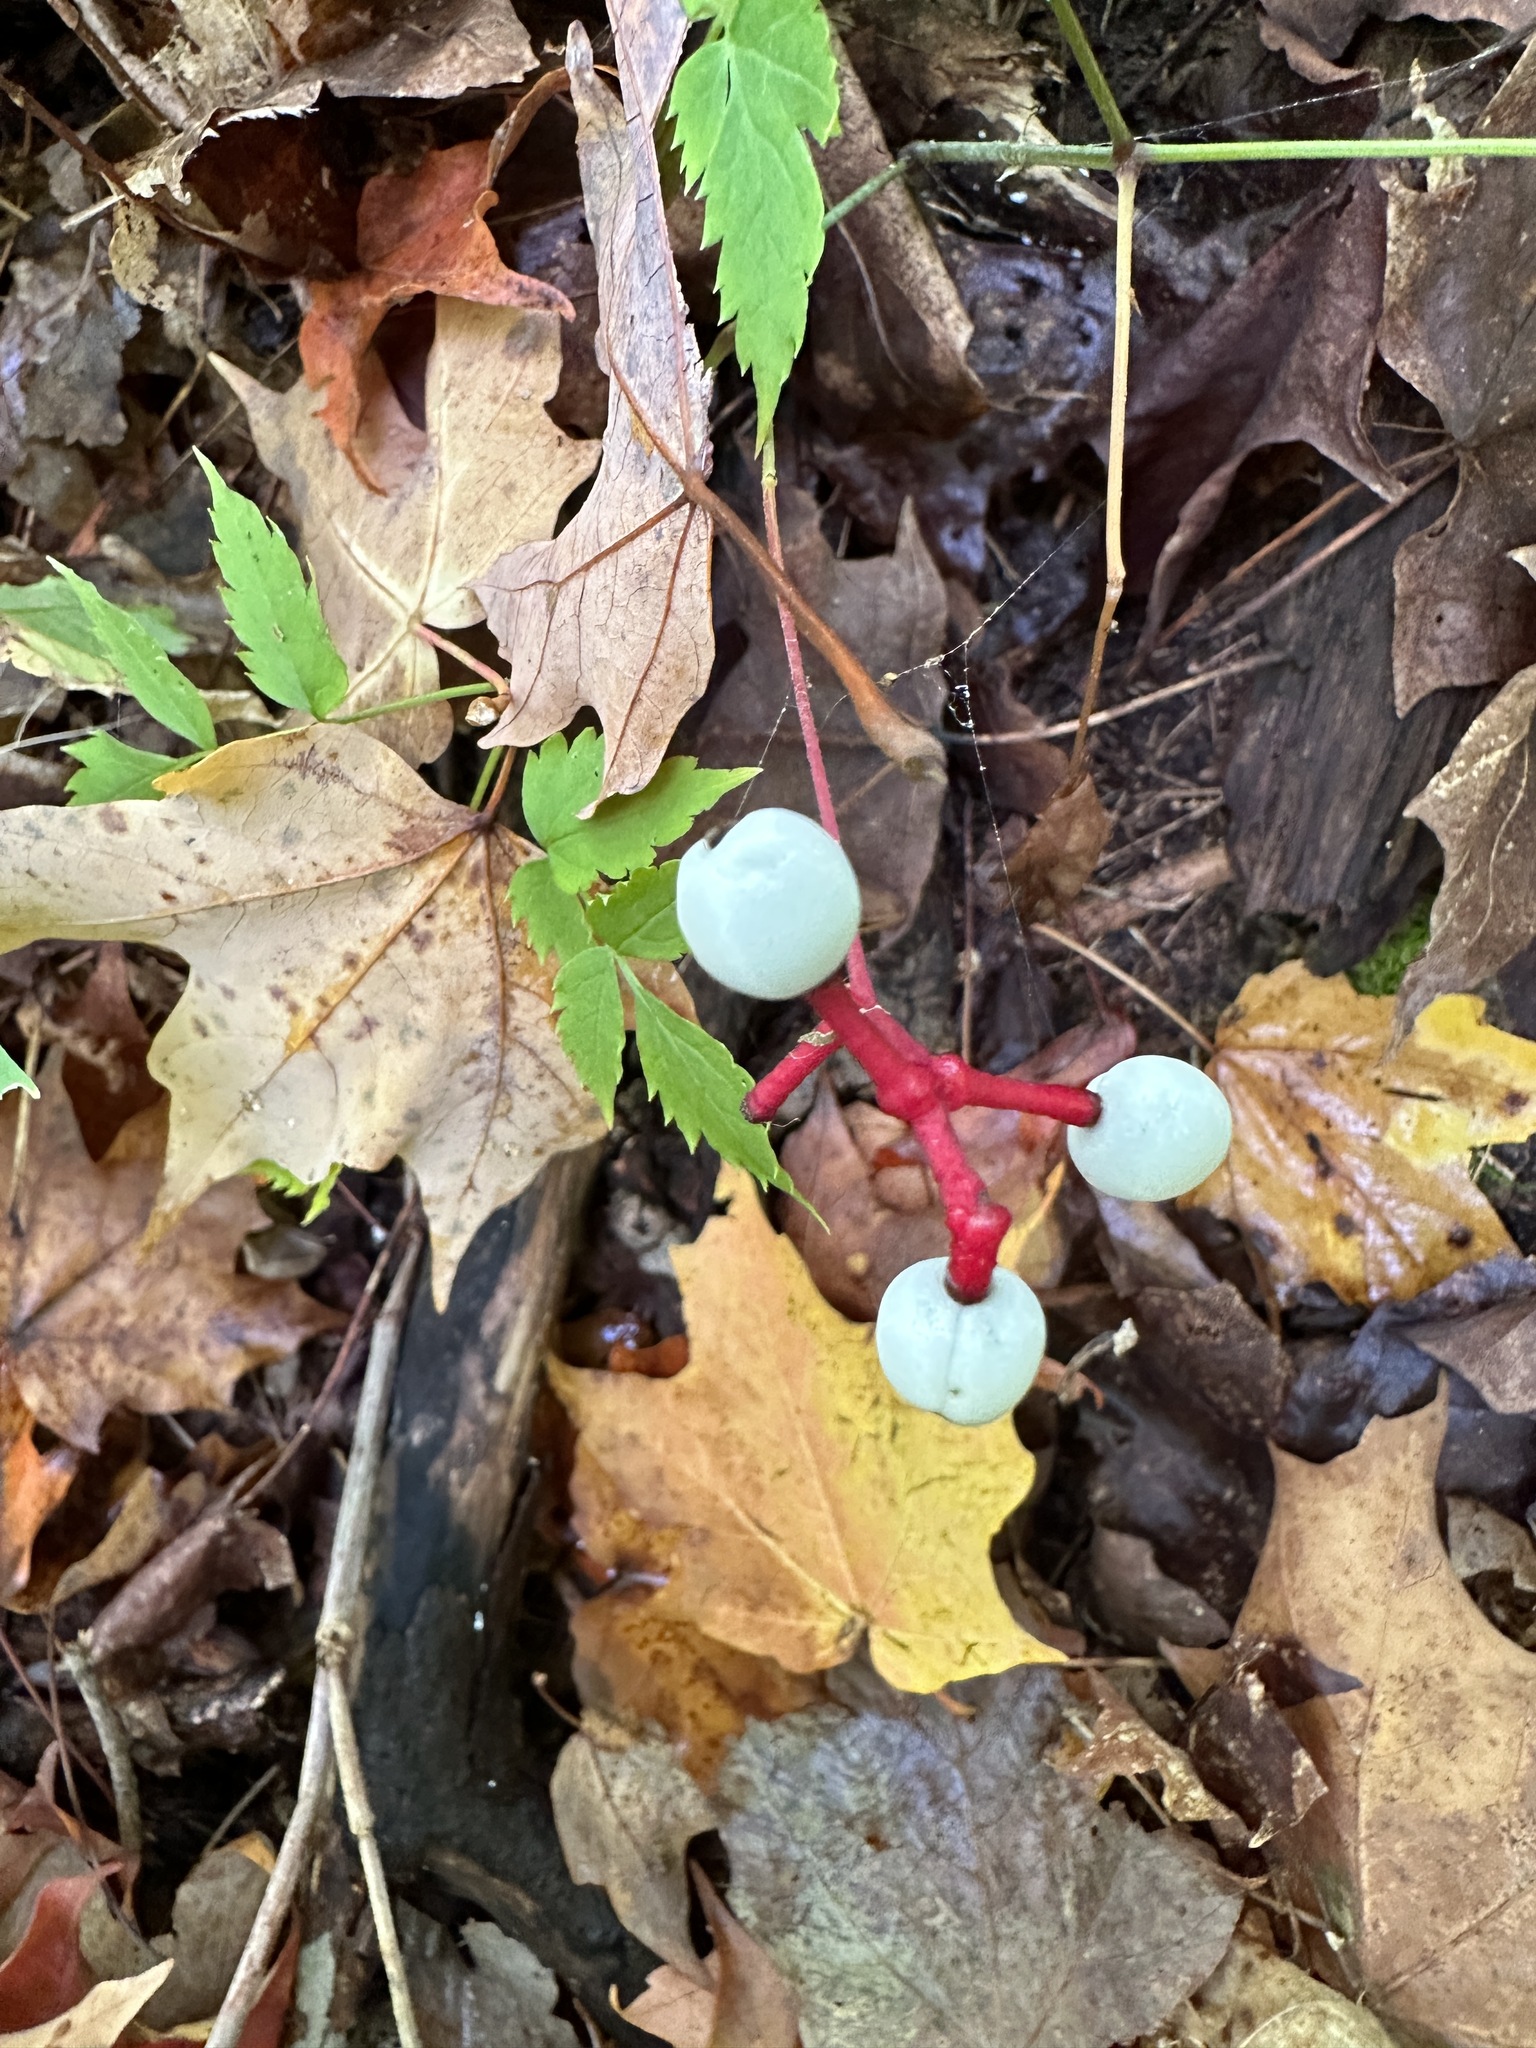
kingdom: Plantae
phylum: Tracheophyta
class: Magnoliopsida
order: Ranunculales
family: Ranunculaceae
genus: Actaea
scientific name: Actaea pachypoda
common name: Doll's-eyes
